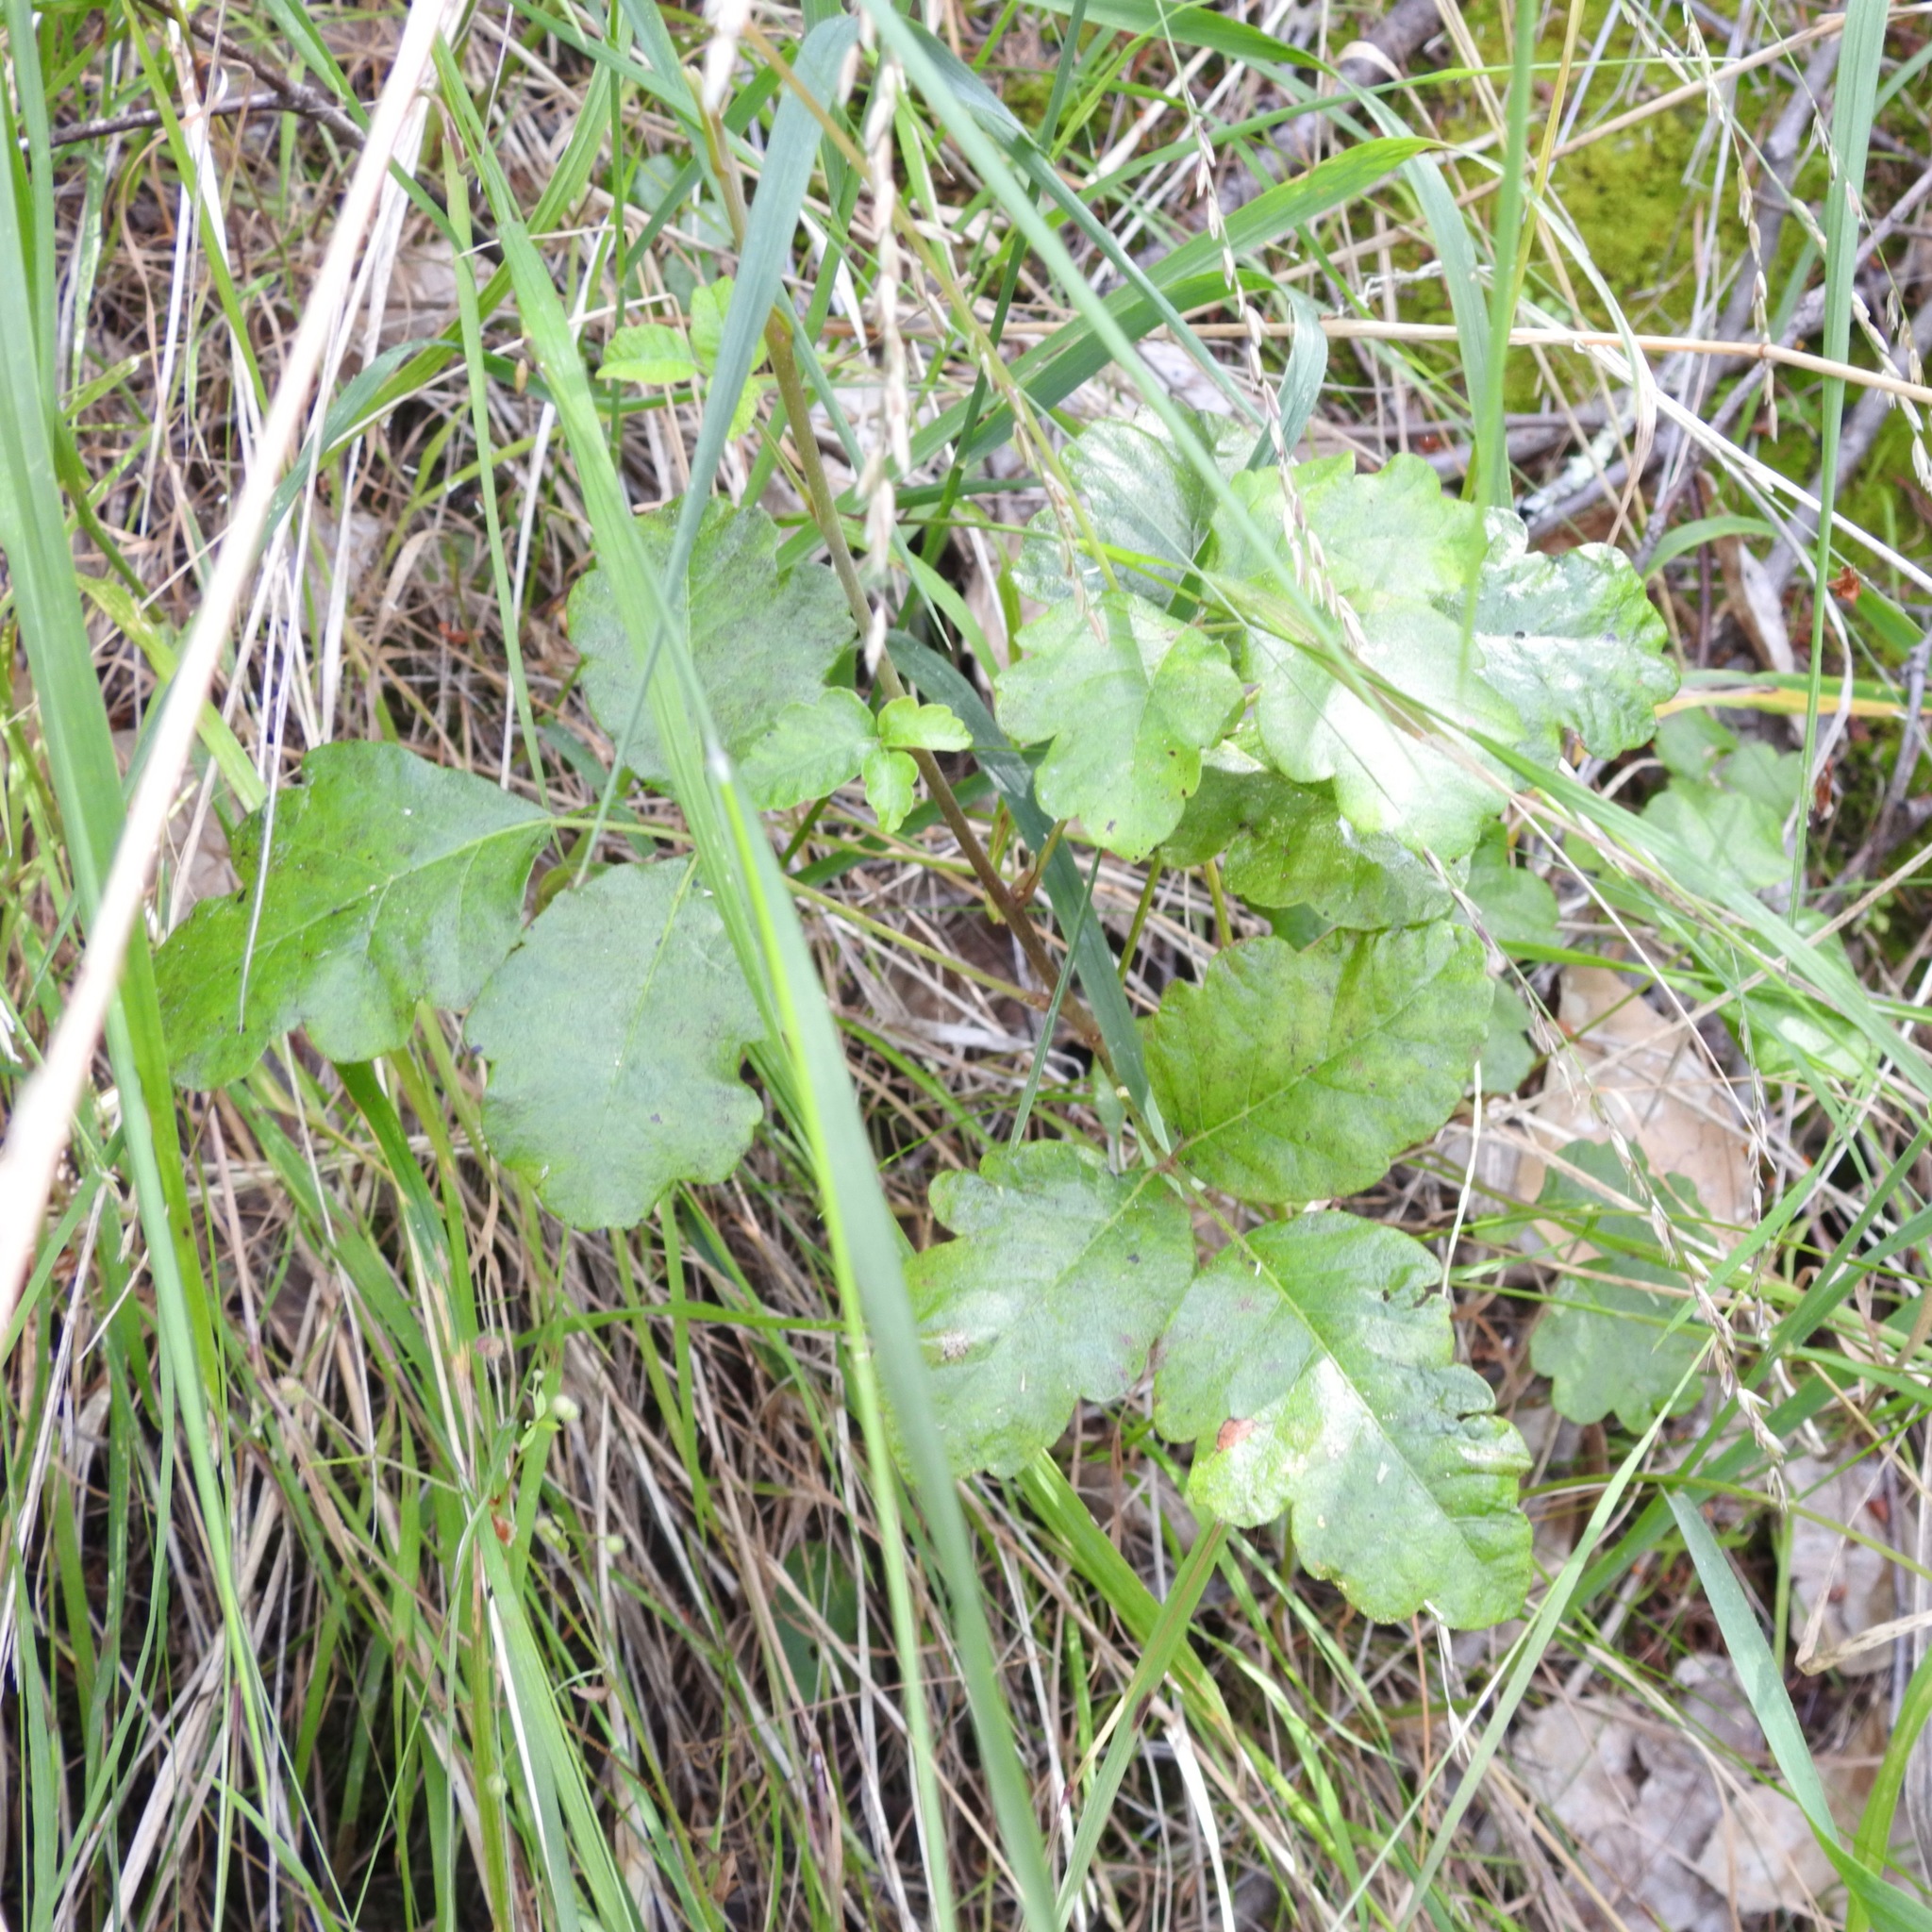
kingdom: Plantae
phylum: Tracheophyta
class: Magnoliopsida
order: Sapindales
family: Anacardiaceae
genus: Toxicodendron
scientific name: Toxicodendron diversilobum
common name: Pacific poison-oak
